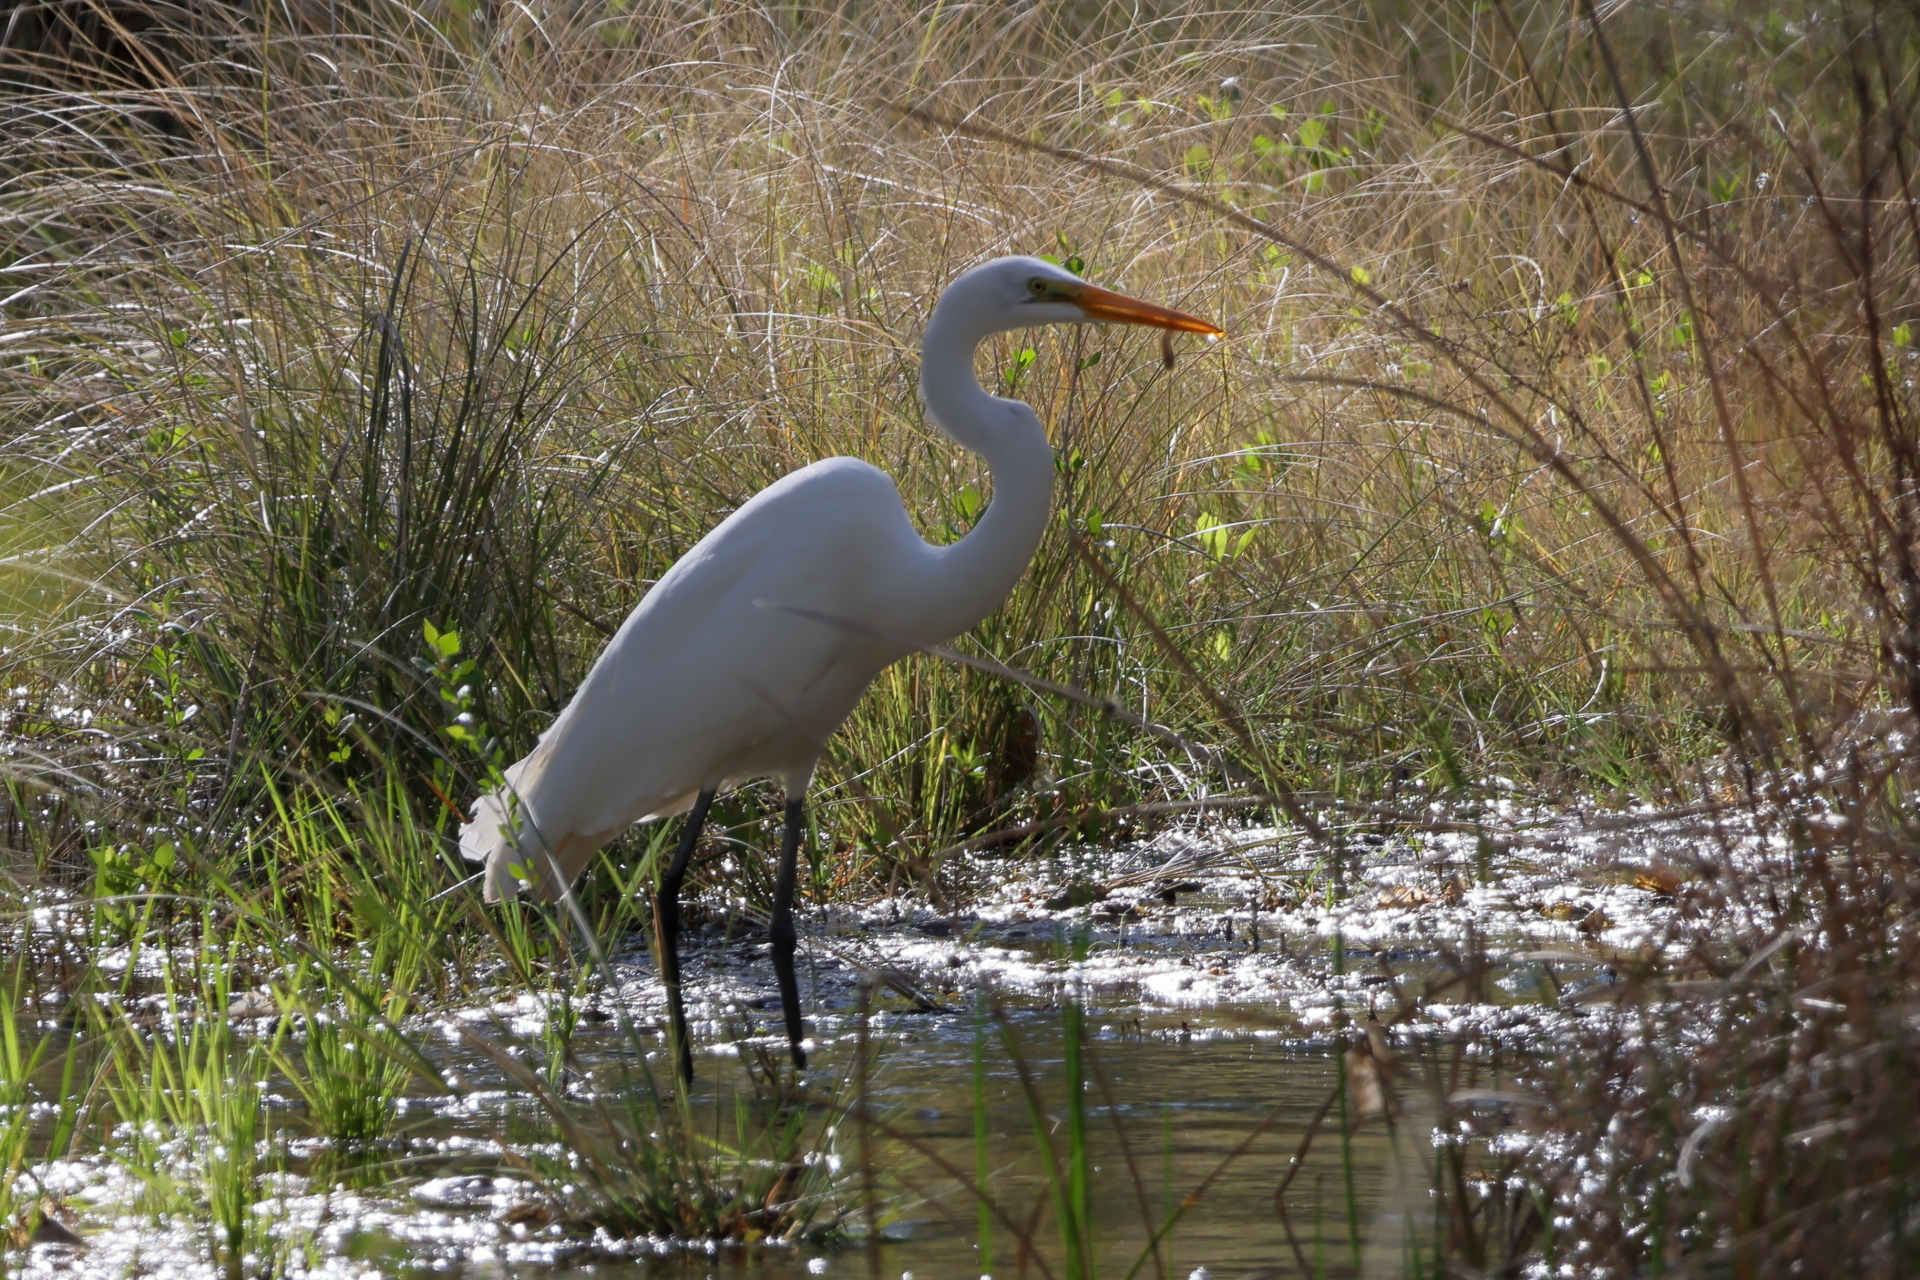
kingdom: Animalia
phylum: Chordata
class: Aves
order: Pelecaniformes
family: Ardeidae
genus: Ardea
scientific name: Ardea alba
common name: Great egret
